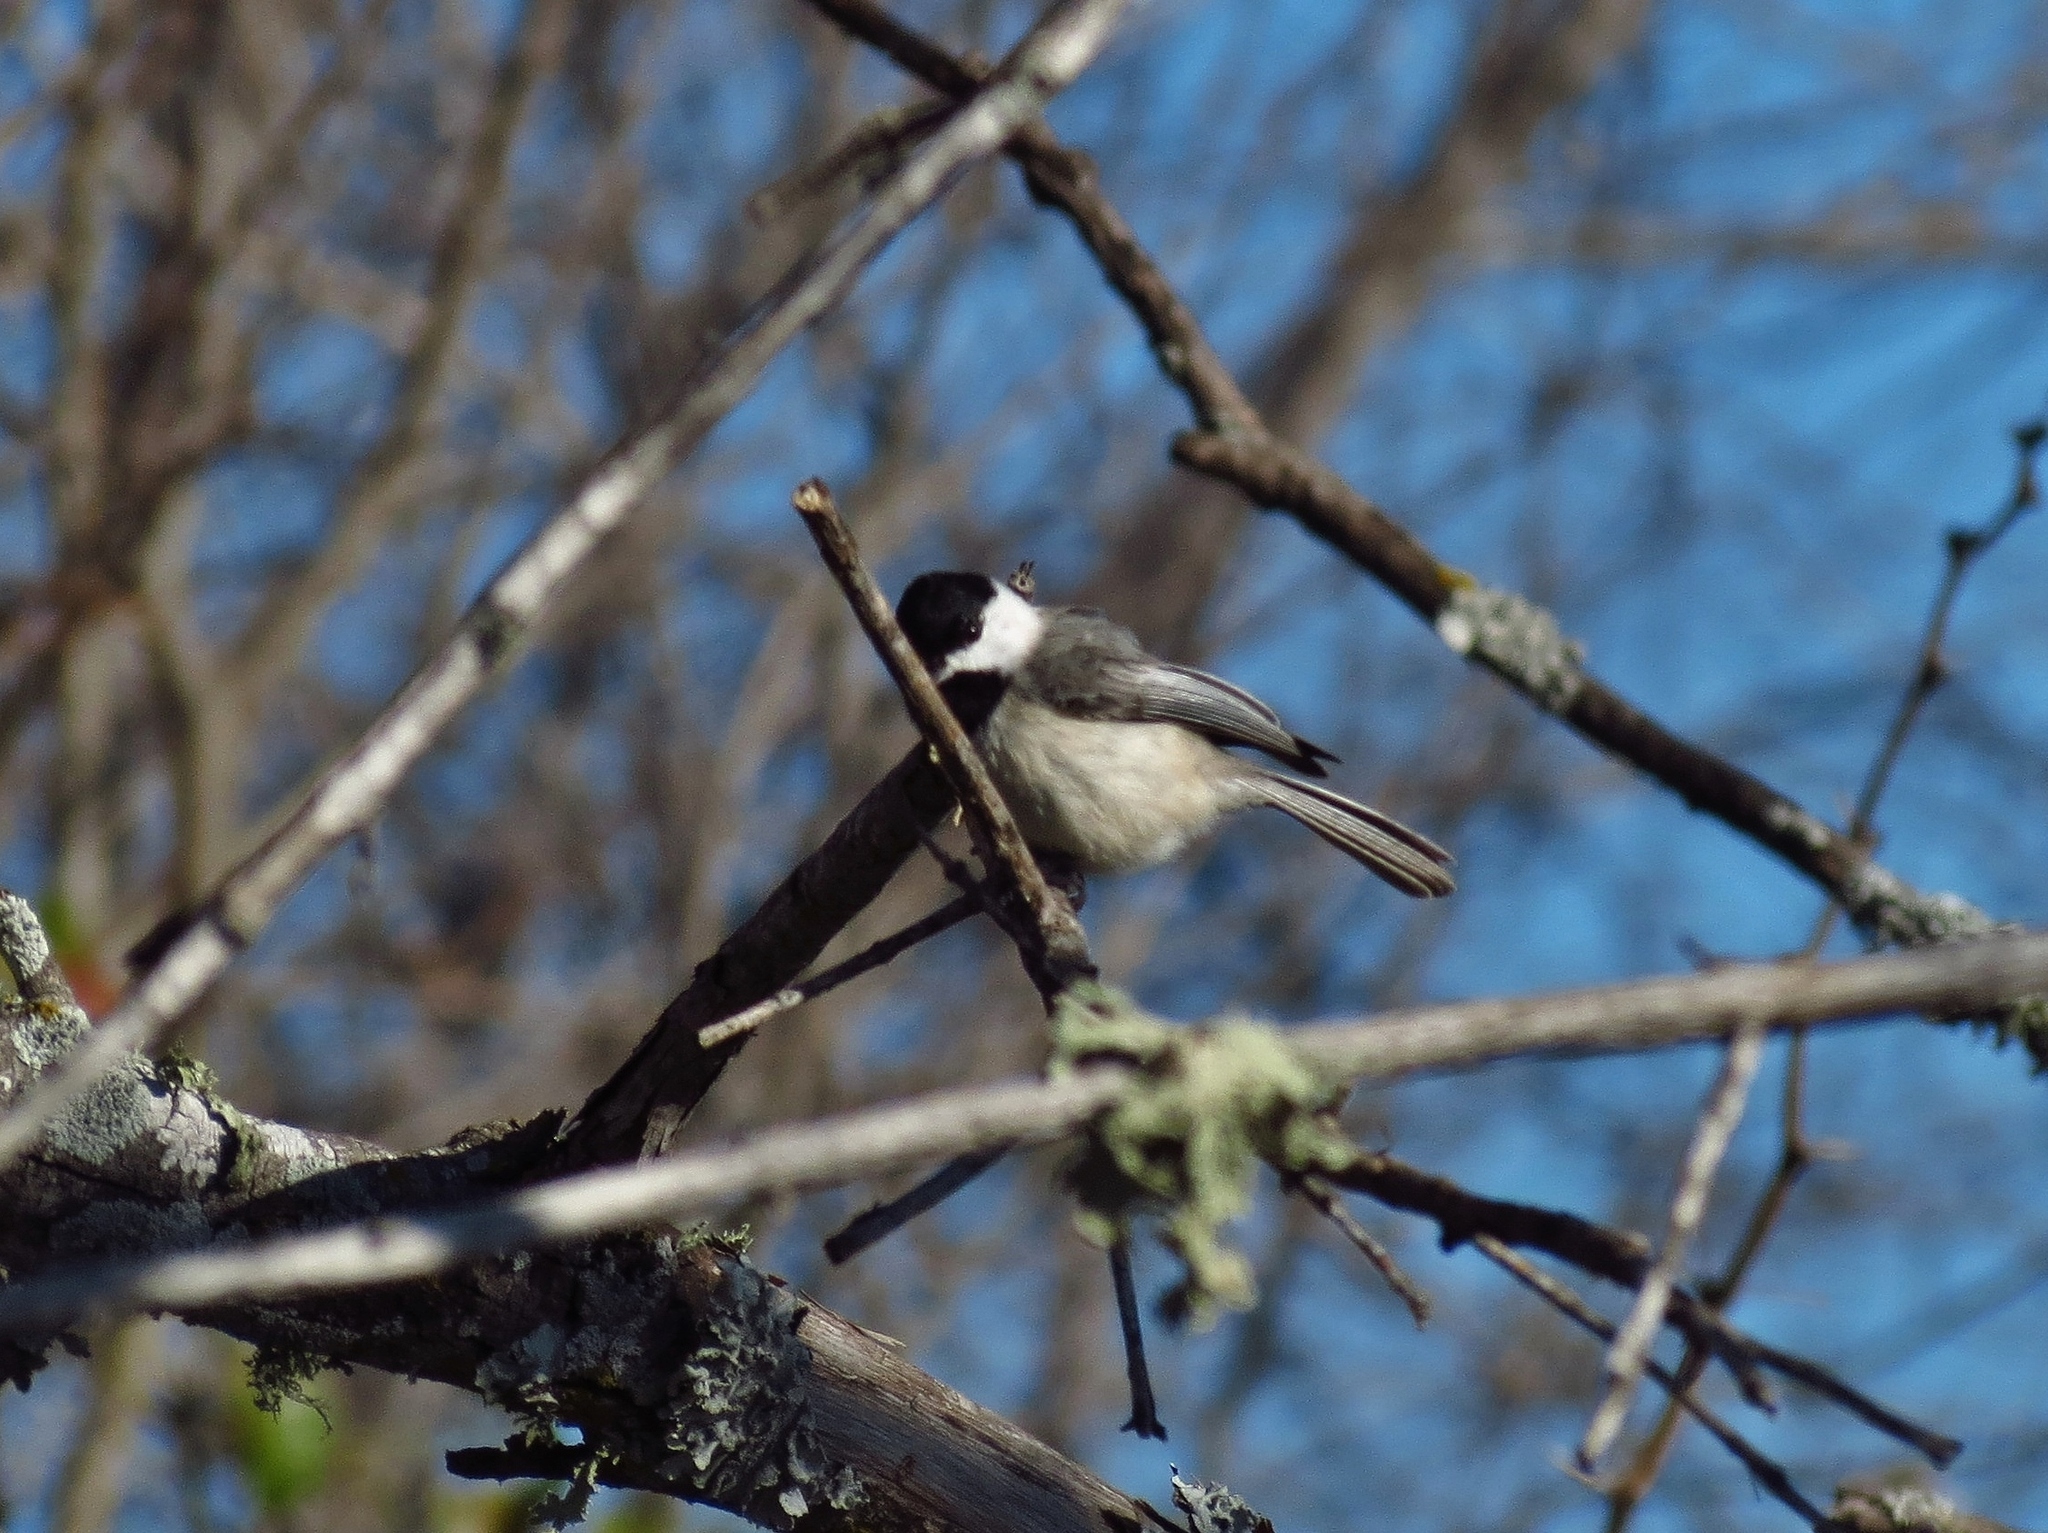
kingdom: Animalia
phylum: Chordata
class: Aves
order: Passeriformes
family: Paridae
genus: Poecile
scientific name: Poecile carolinensis
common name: Carolina chickadee
